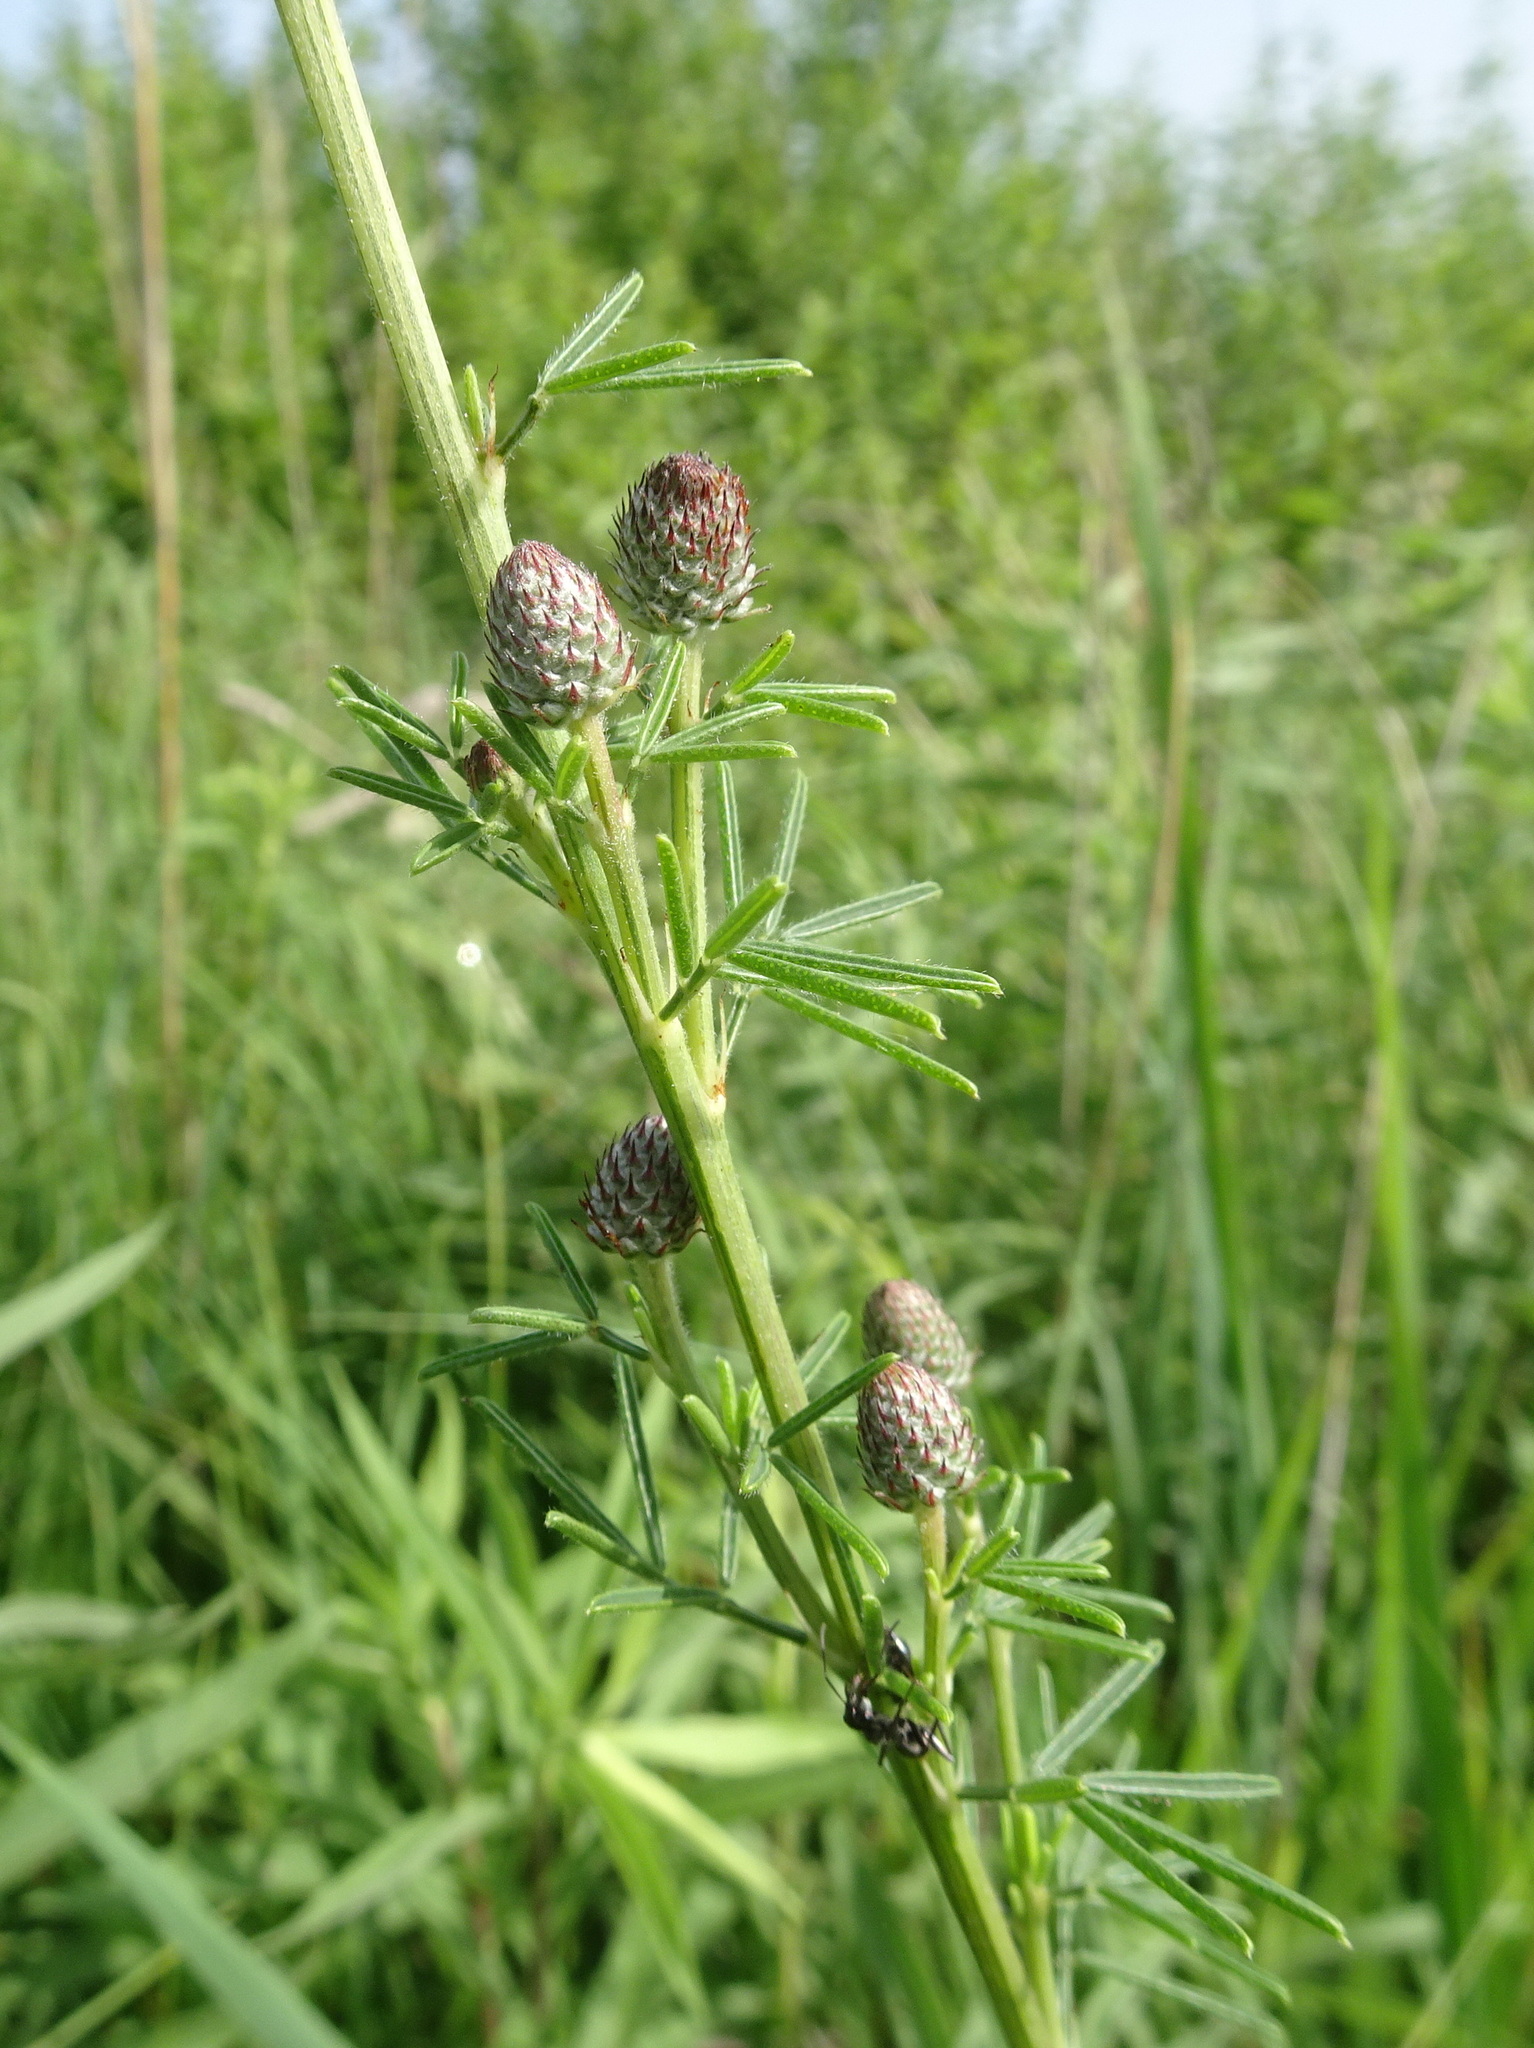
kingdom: Plantae
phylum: Tracheophyta
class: Magnoliopsida
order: Fabales
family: Fabaceae
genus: Dalea
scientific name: Dalea purpurea
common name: Purple prairie-clover
